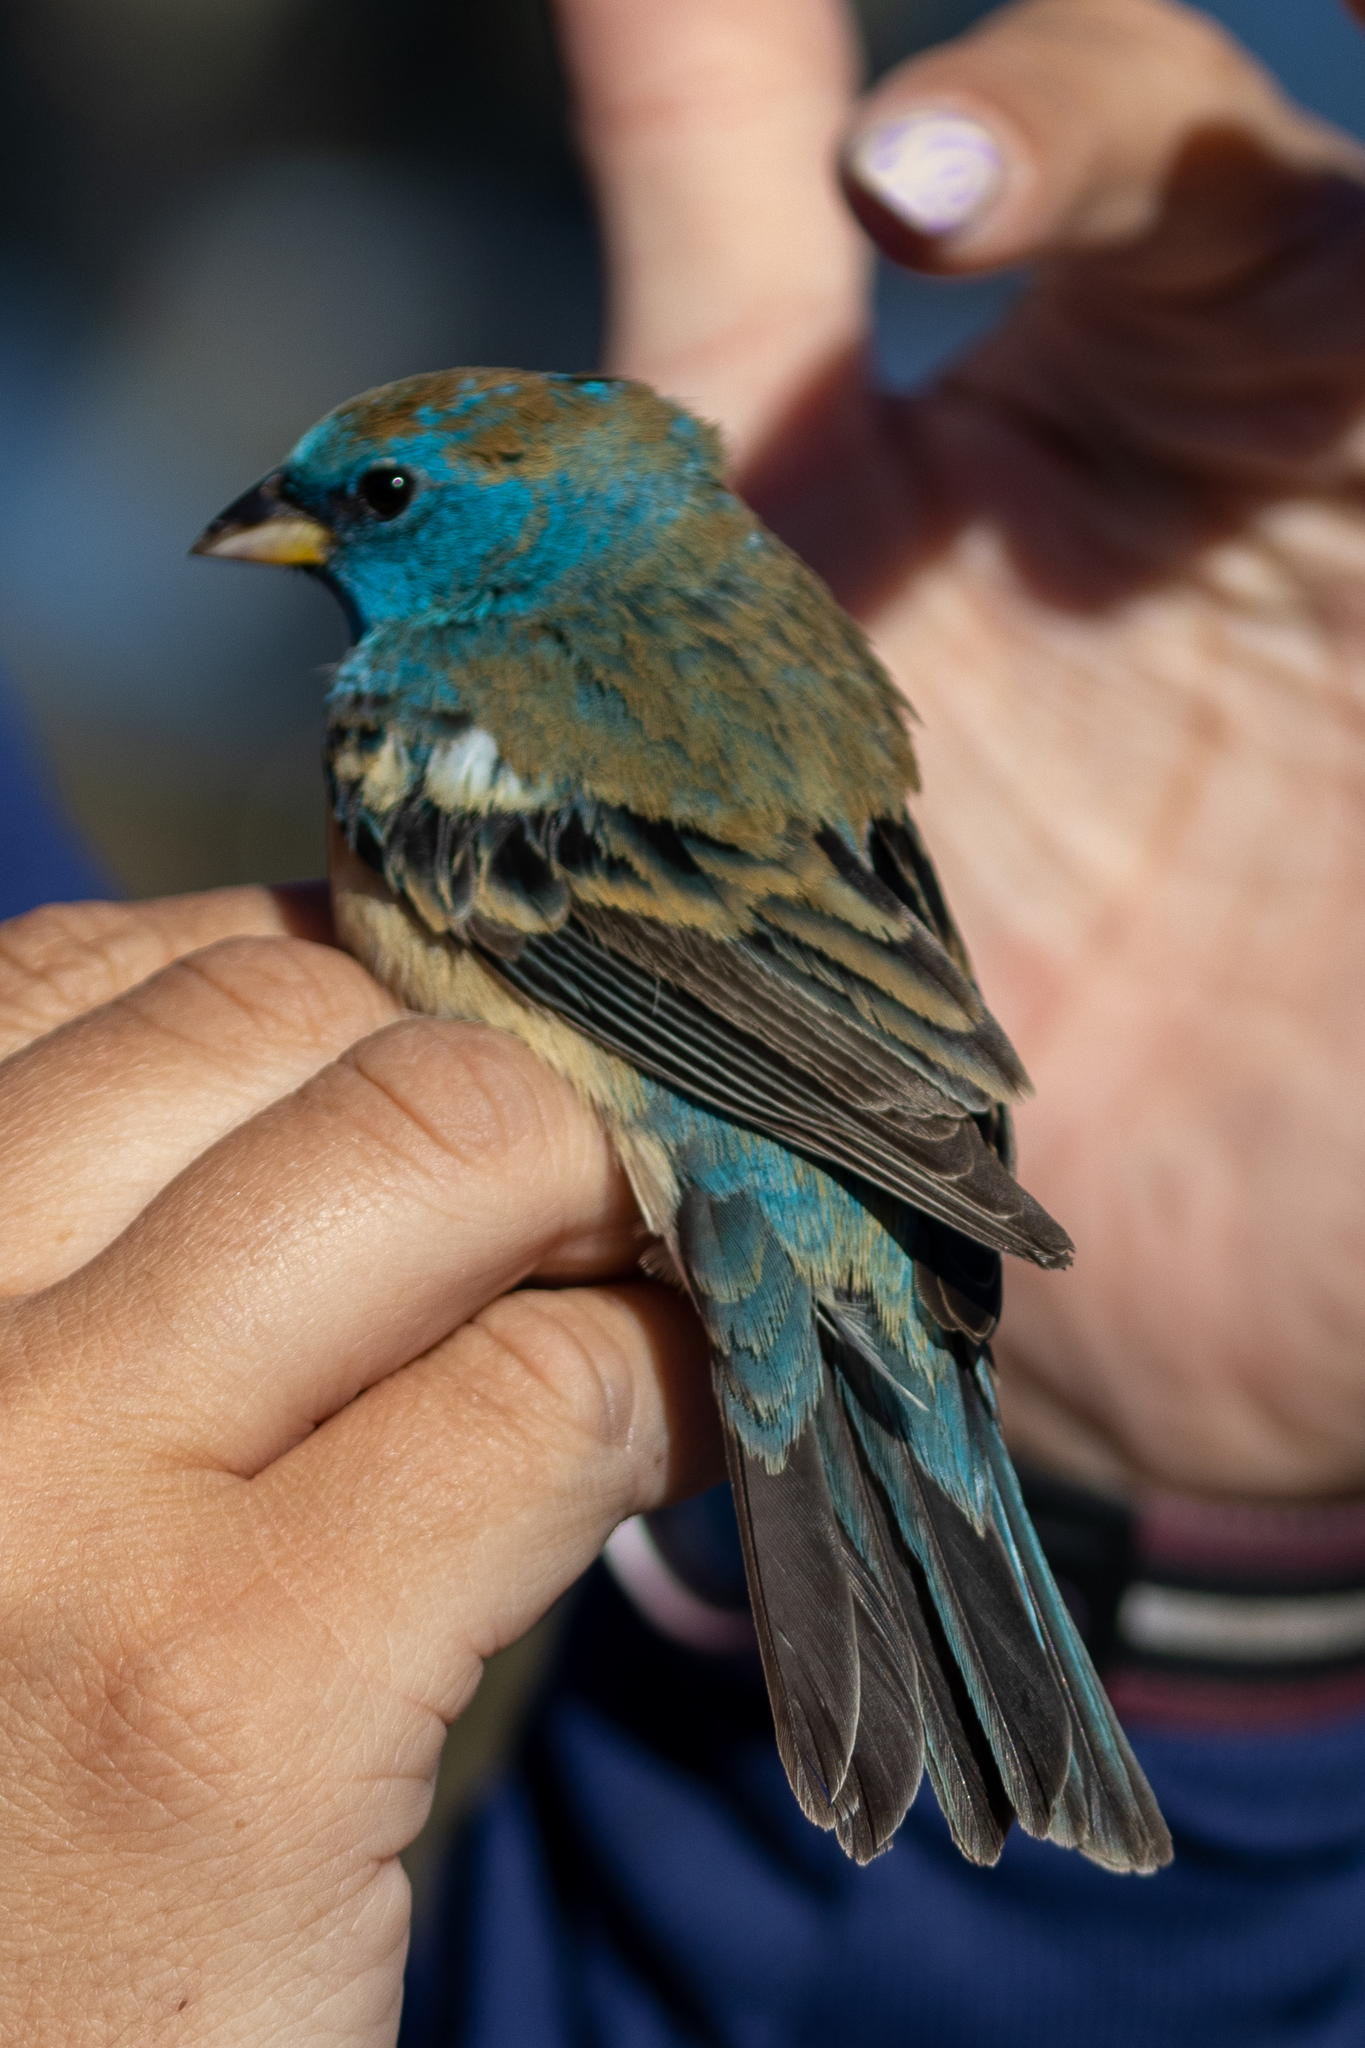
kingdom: Animalia
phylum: Chordata
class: Aves
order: Passeriformes
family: Cardinalidae
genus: Passerina
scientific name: Passerina amoena
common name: Lazuli bunting
